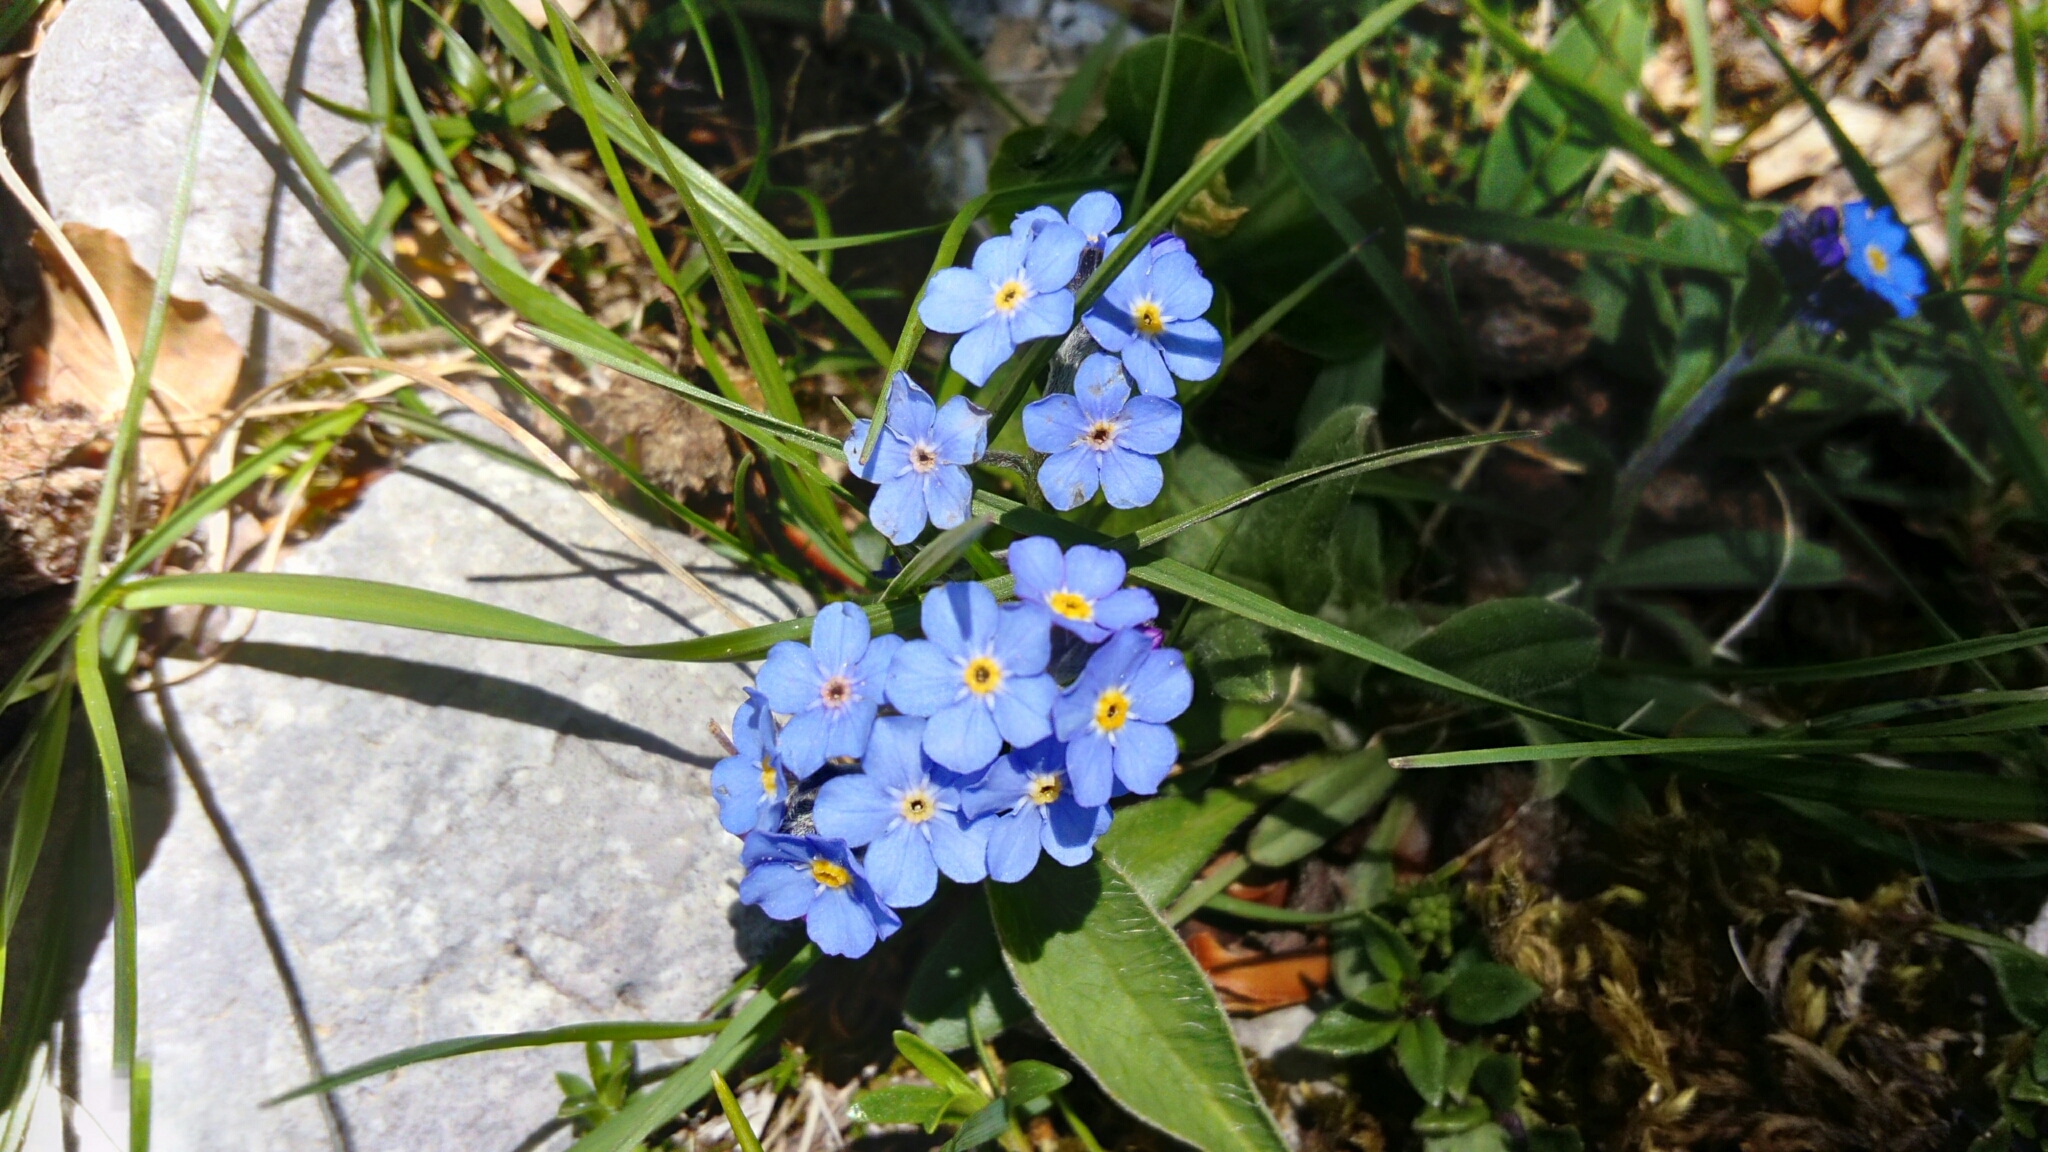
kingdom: Plantae
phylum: Tracheophyta
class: Magnoliopsida
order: Boraginales
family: Boraginaceae
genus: Myosotis
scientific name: Myosotis sylvatica
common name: Wood forget-me-not
